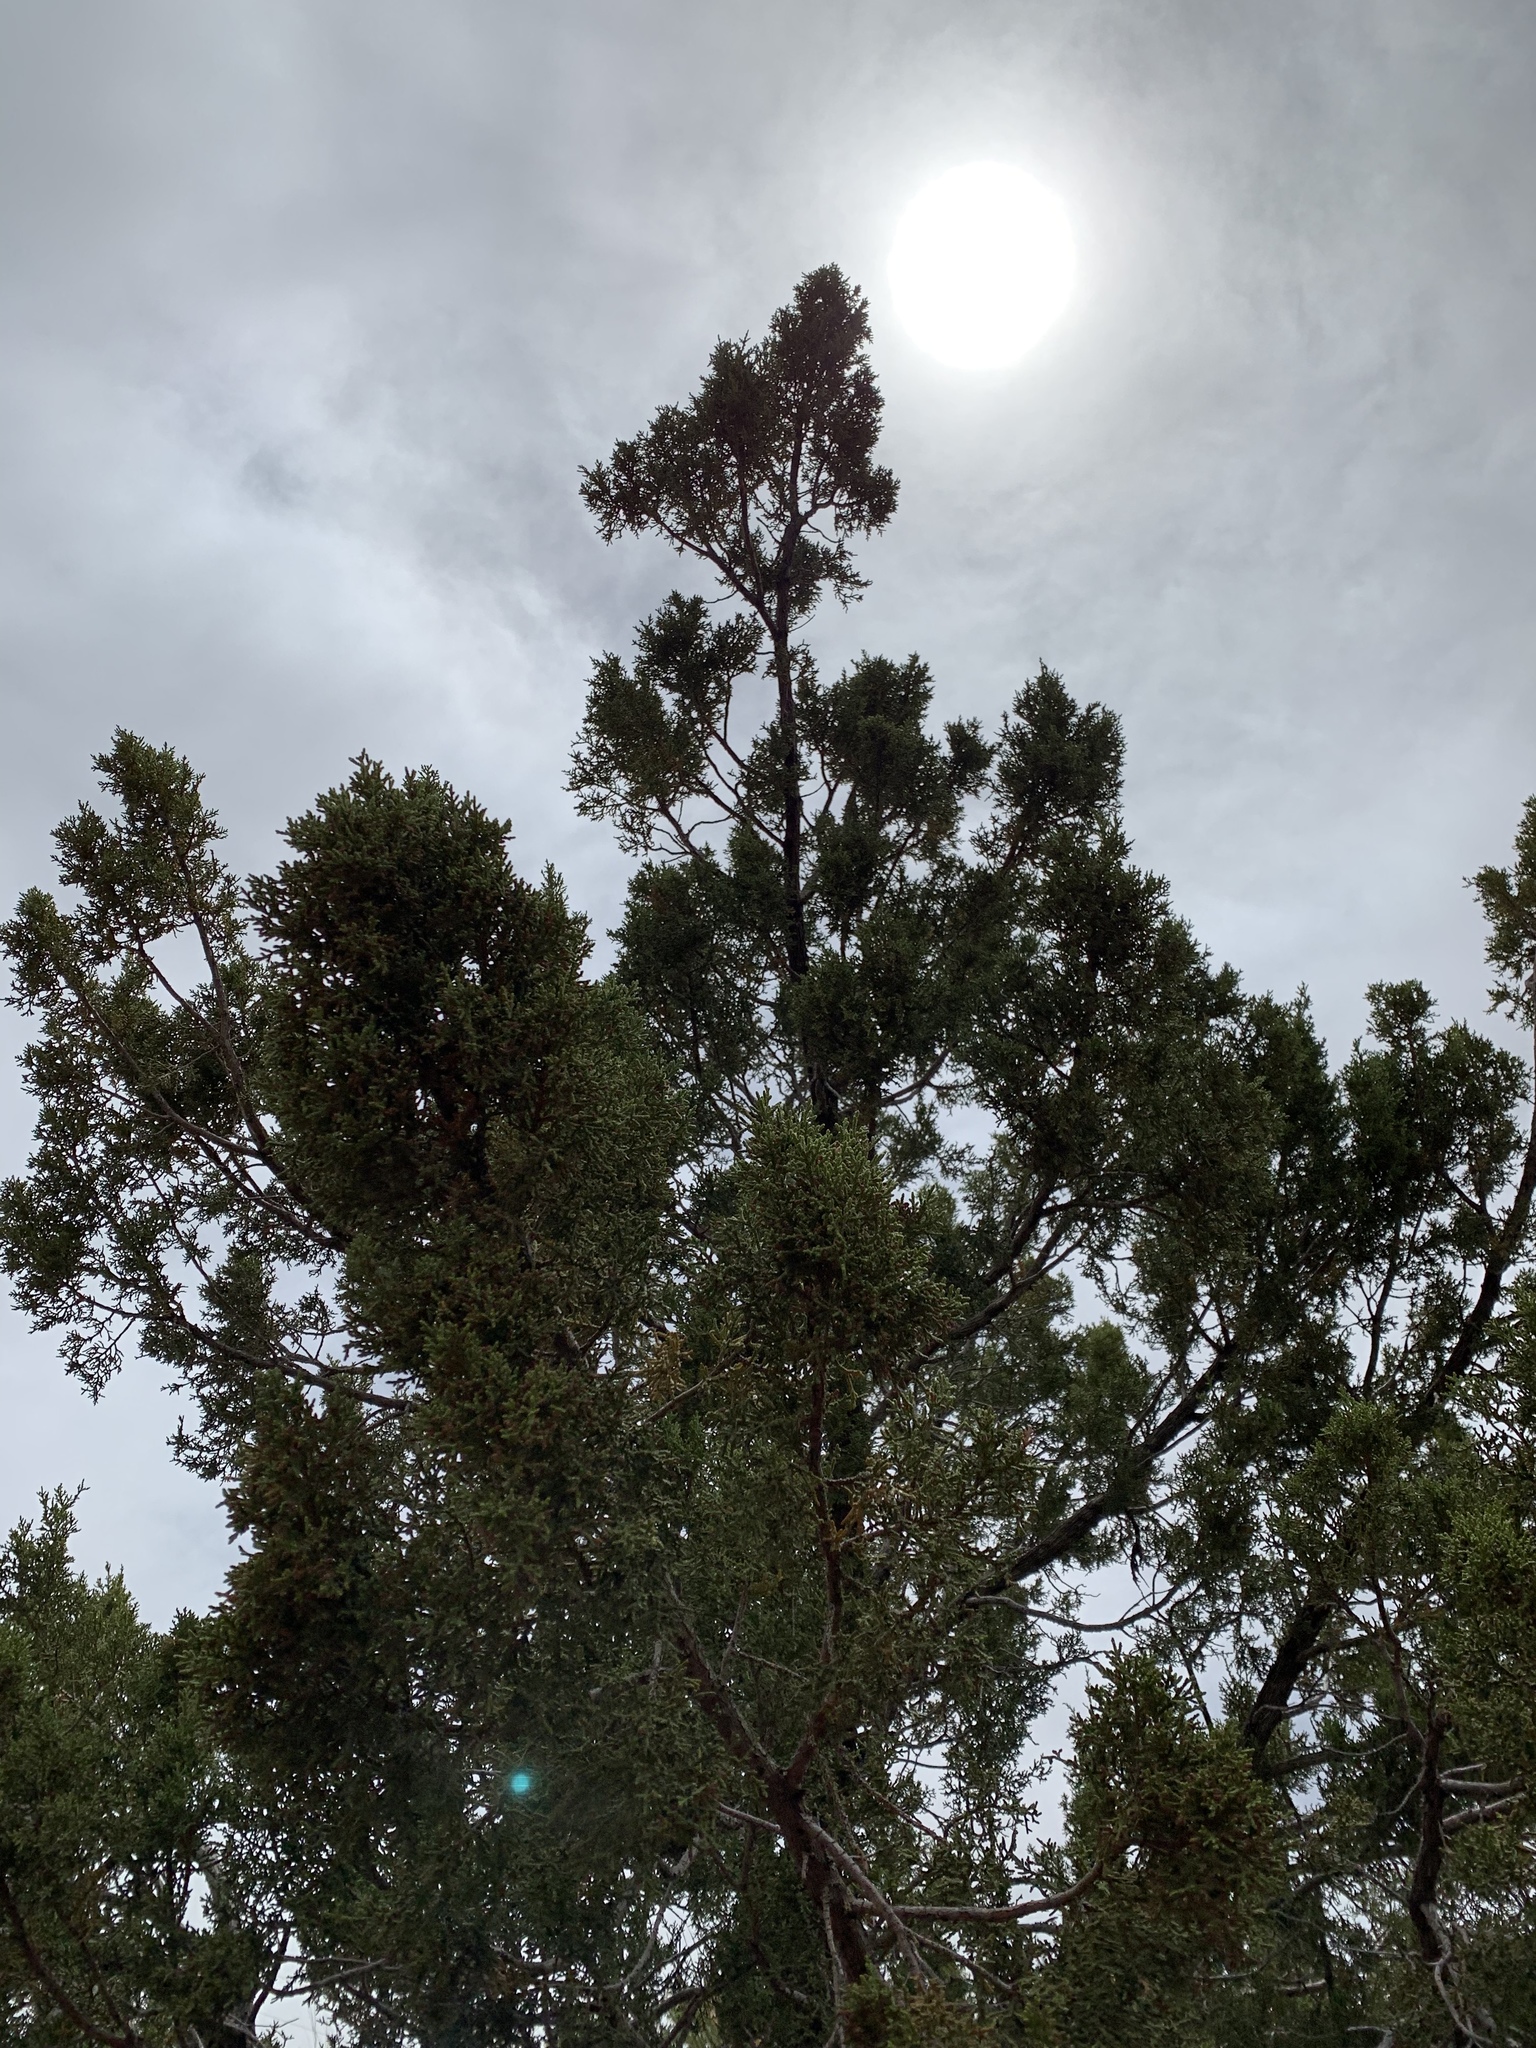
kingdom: Plantae
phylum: Tracheophyta
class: Pinopsida
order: Pinales
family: Cupressaceae
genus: Juniperus
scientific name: Juniperus monosperma
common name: One-seed juniper
